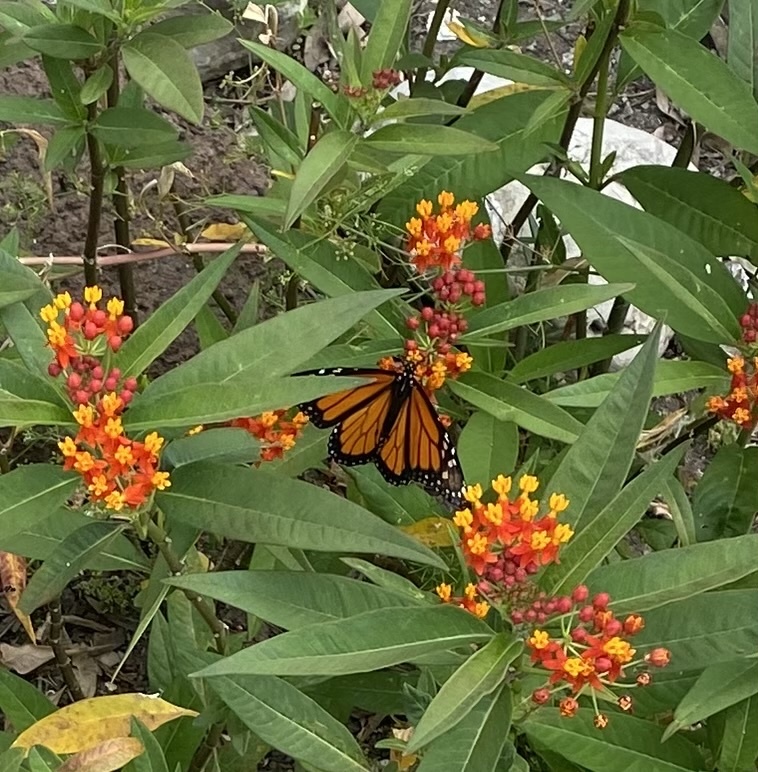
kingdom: Plantae
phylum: Tracheophyta
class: Magnoliopsida
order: Gentianales
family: Apocynaceae
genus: Asclepias
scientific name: Asclepias curassavica
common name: Bloodflower
